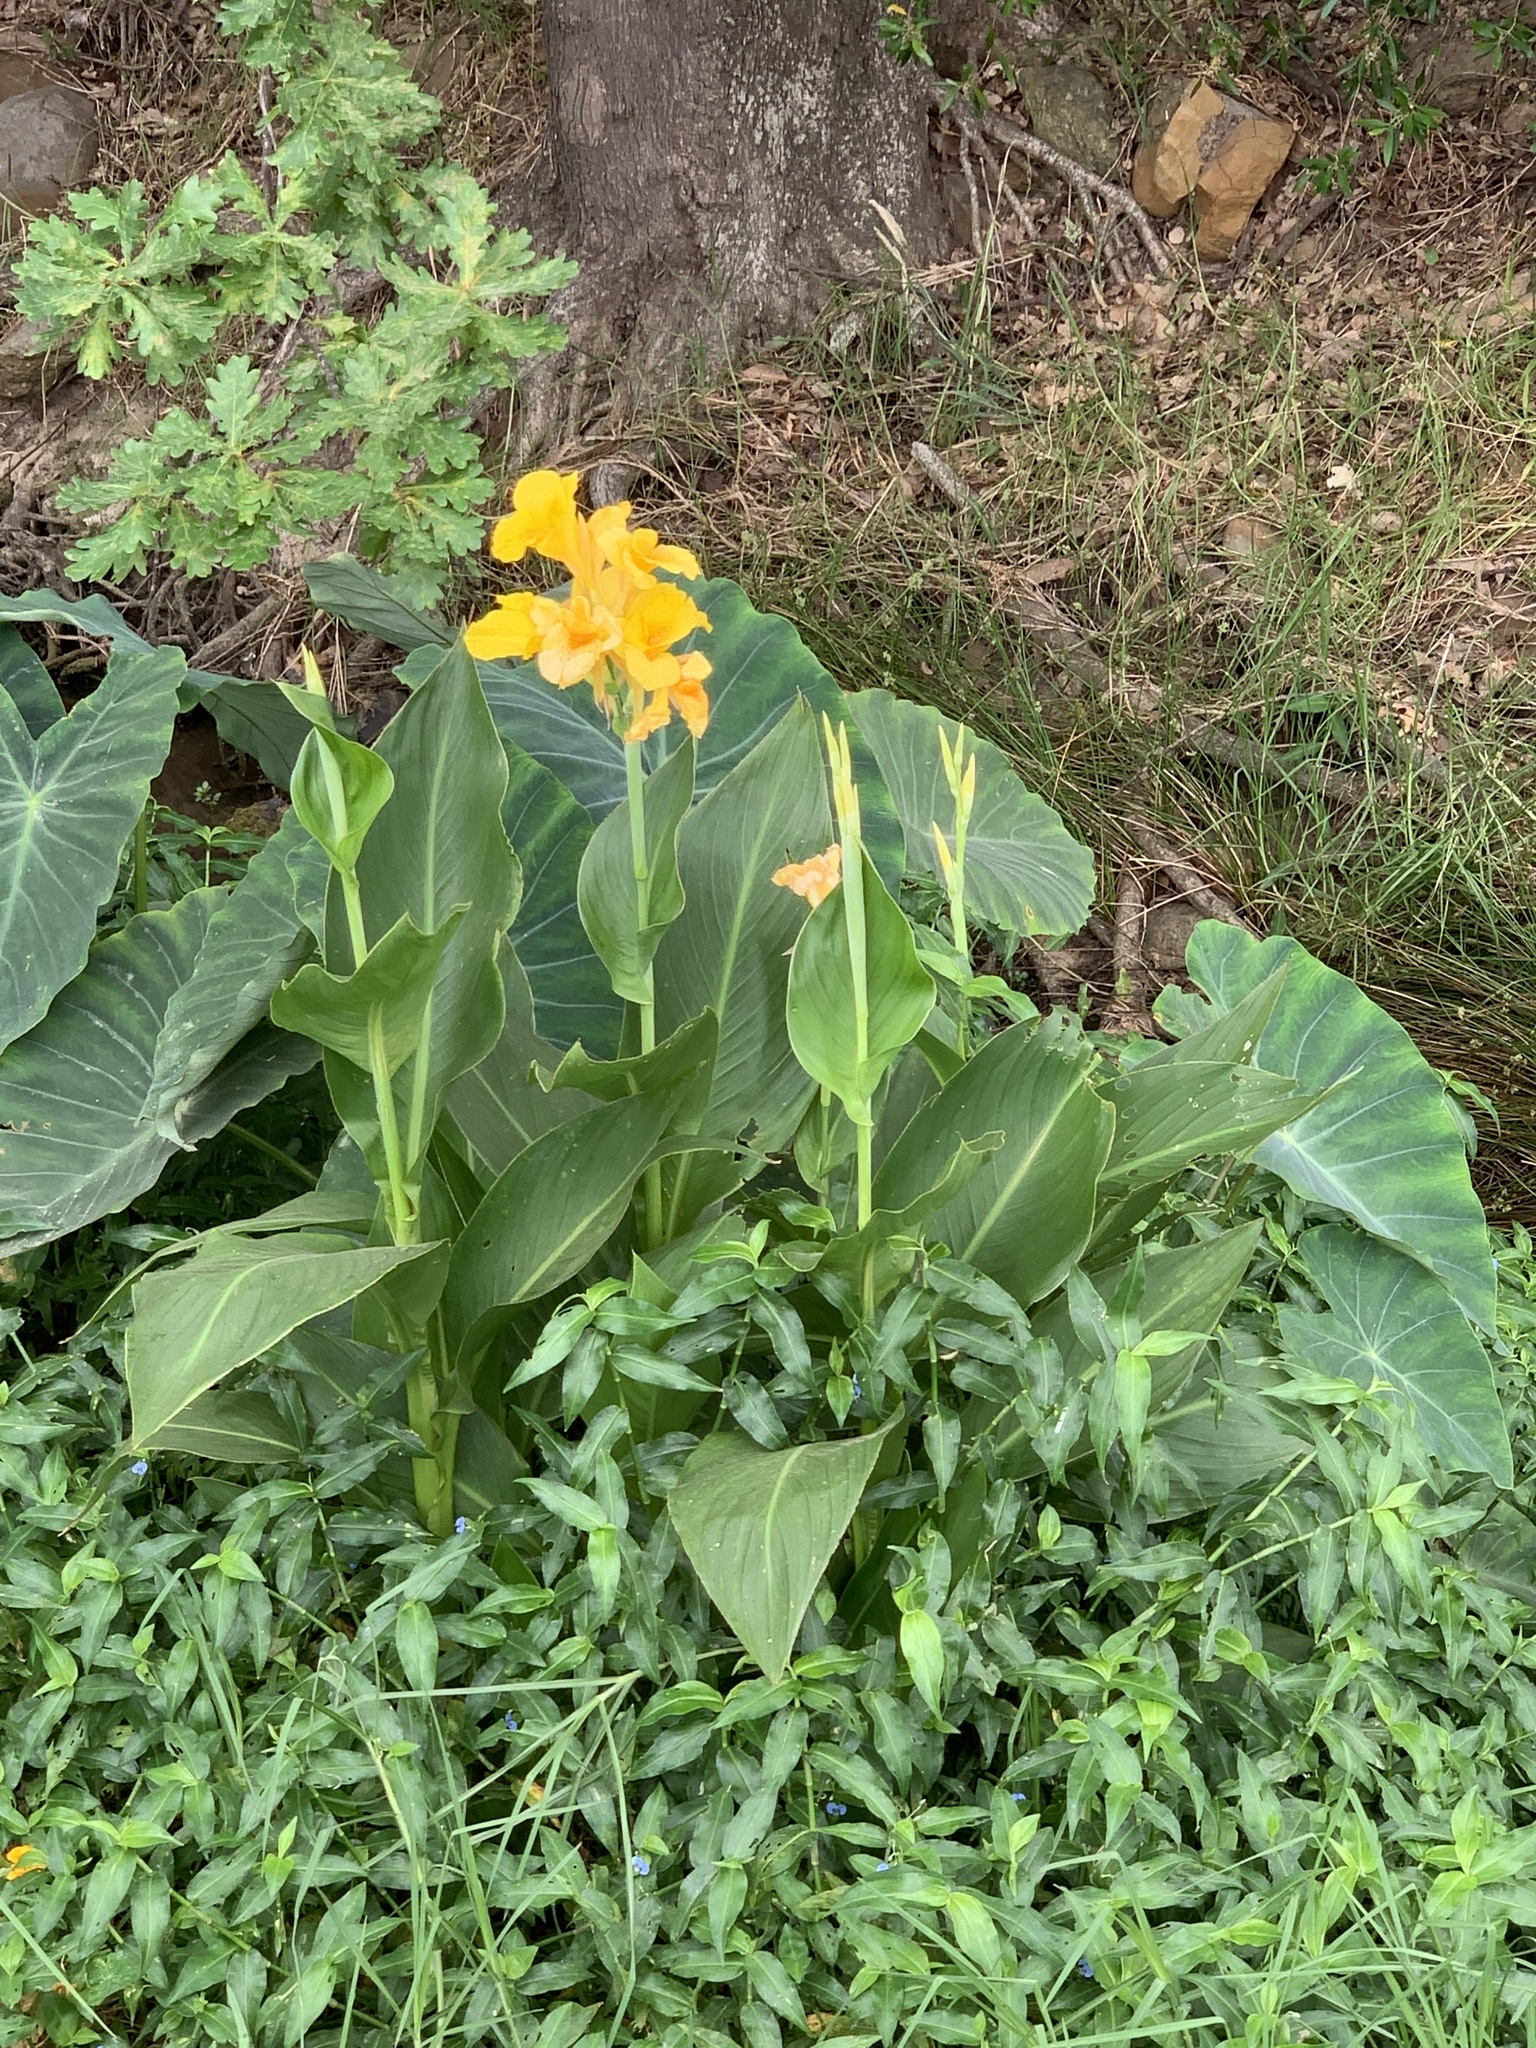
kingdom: Plantae
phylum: Tracheophyta
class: Liliopsida
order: Zingiberales
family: Cannaceae
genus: Canna
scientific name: Canna hybrida
